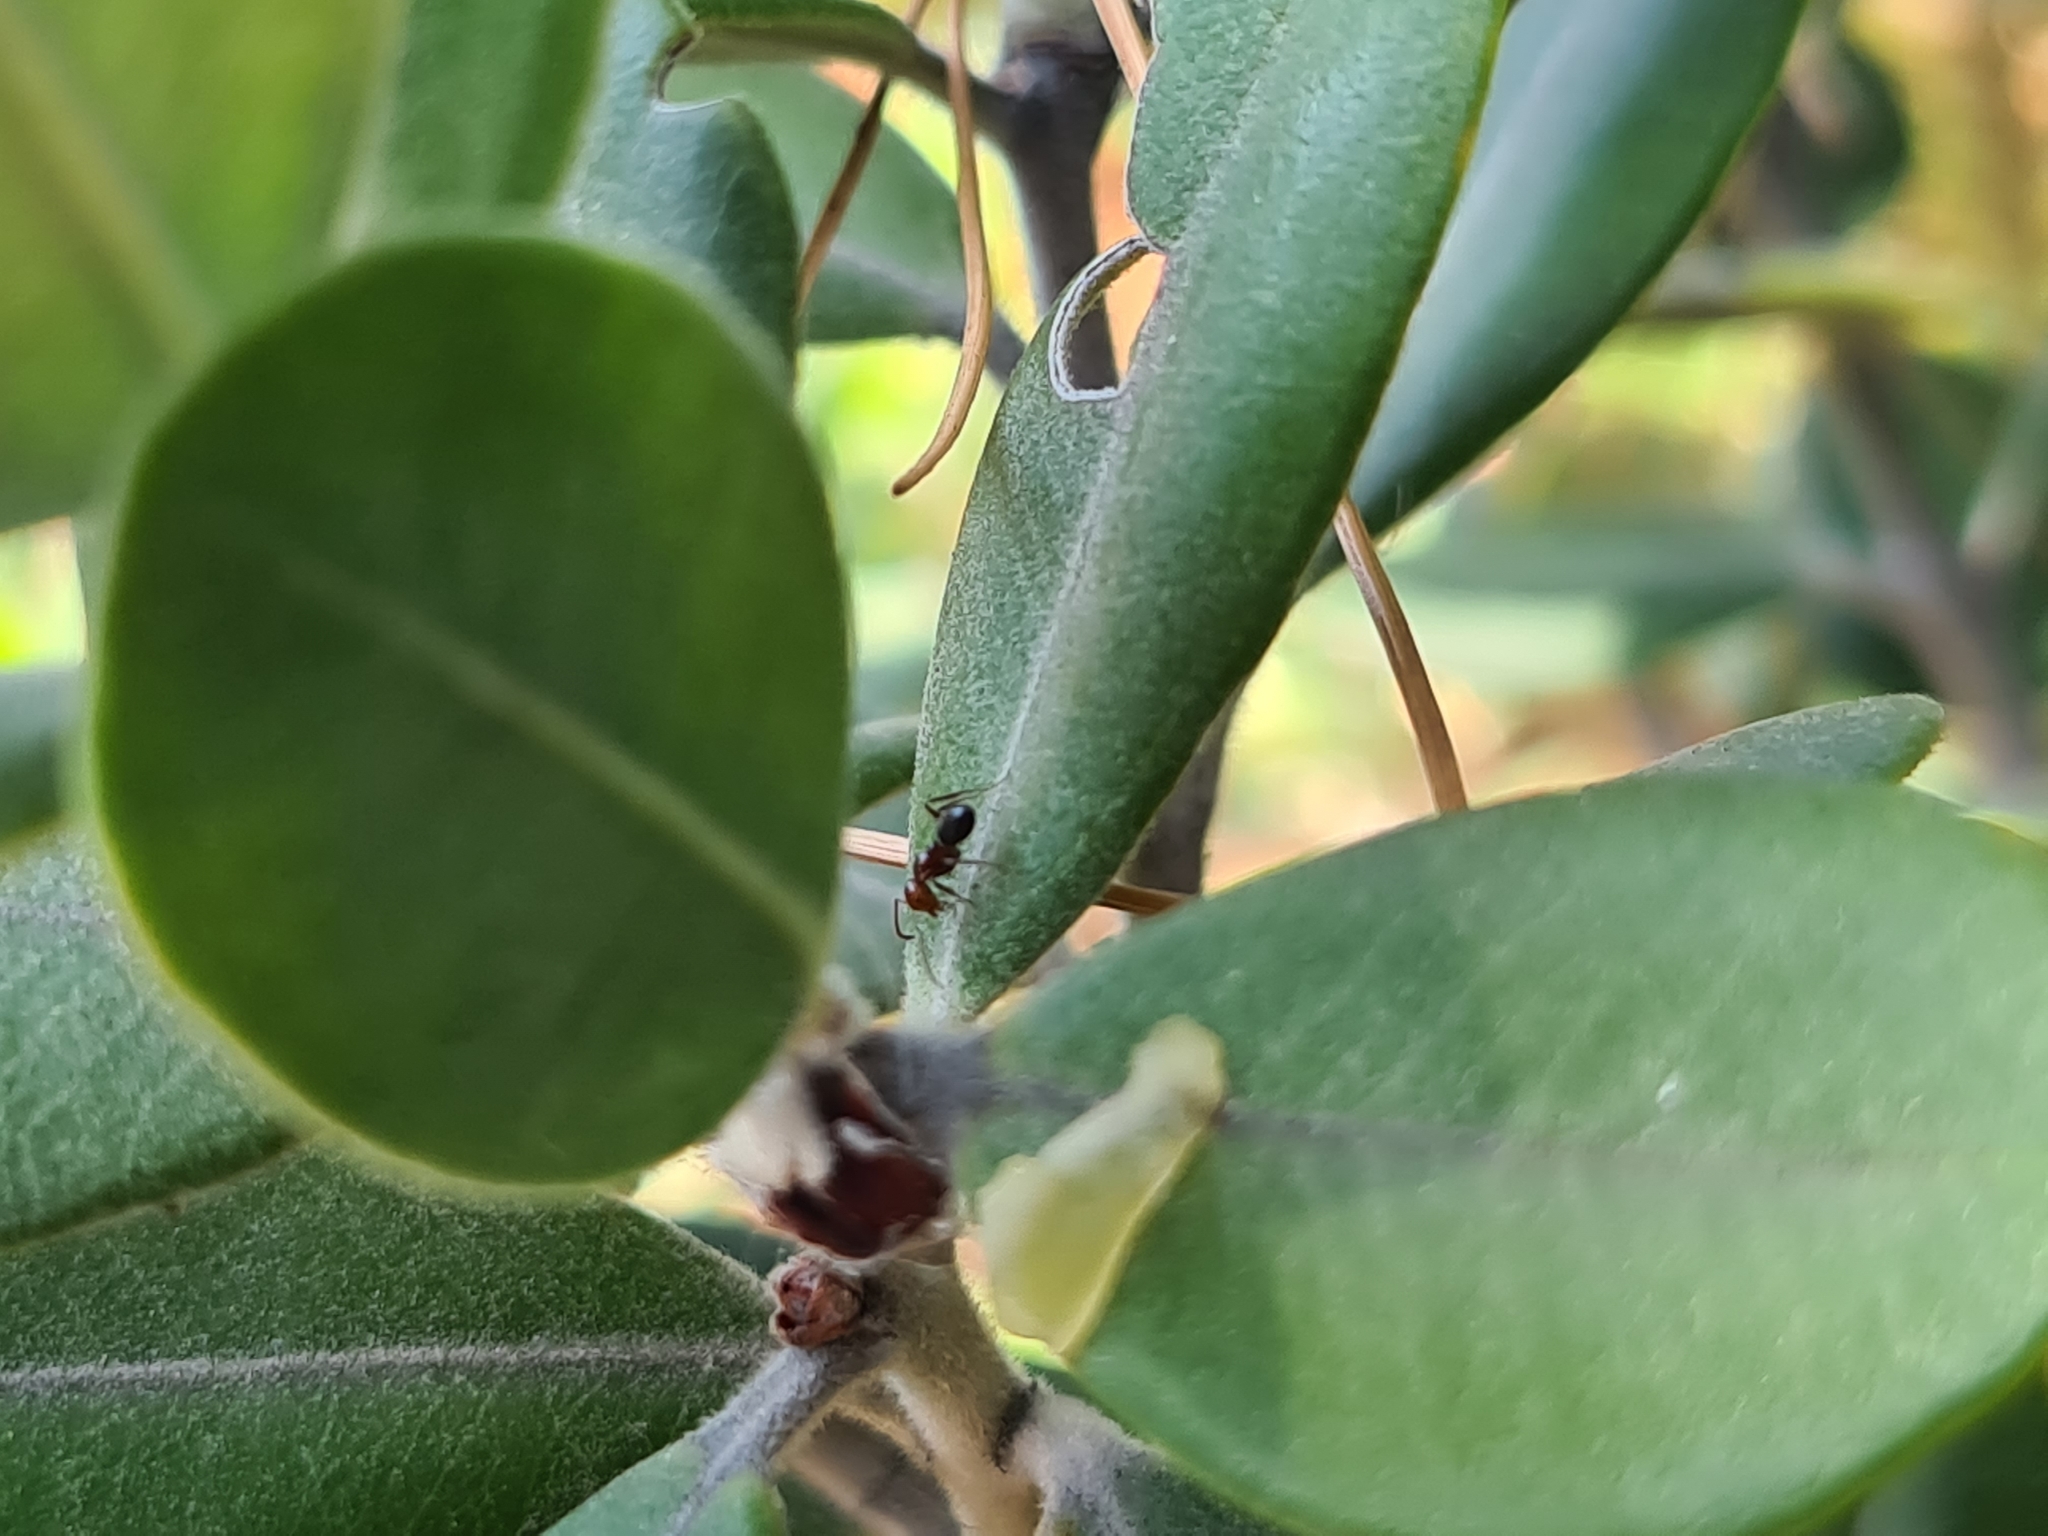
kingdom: Animalia
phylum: Arthropoda
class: Insecta
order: Hymenoptera
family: Formicidae
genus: Camponotus
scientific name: Camponotus lateralis
